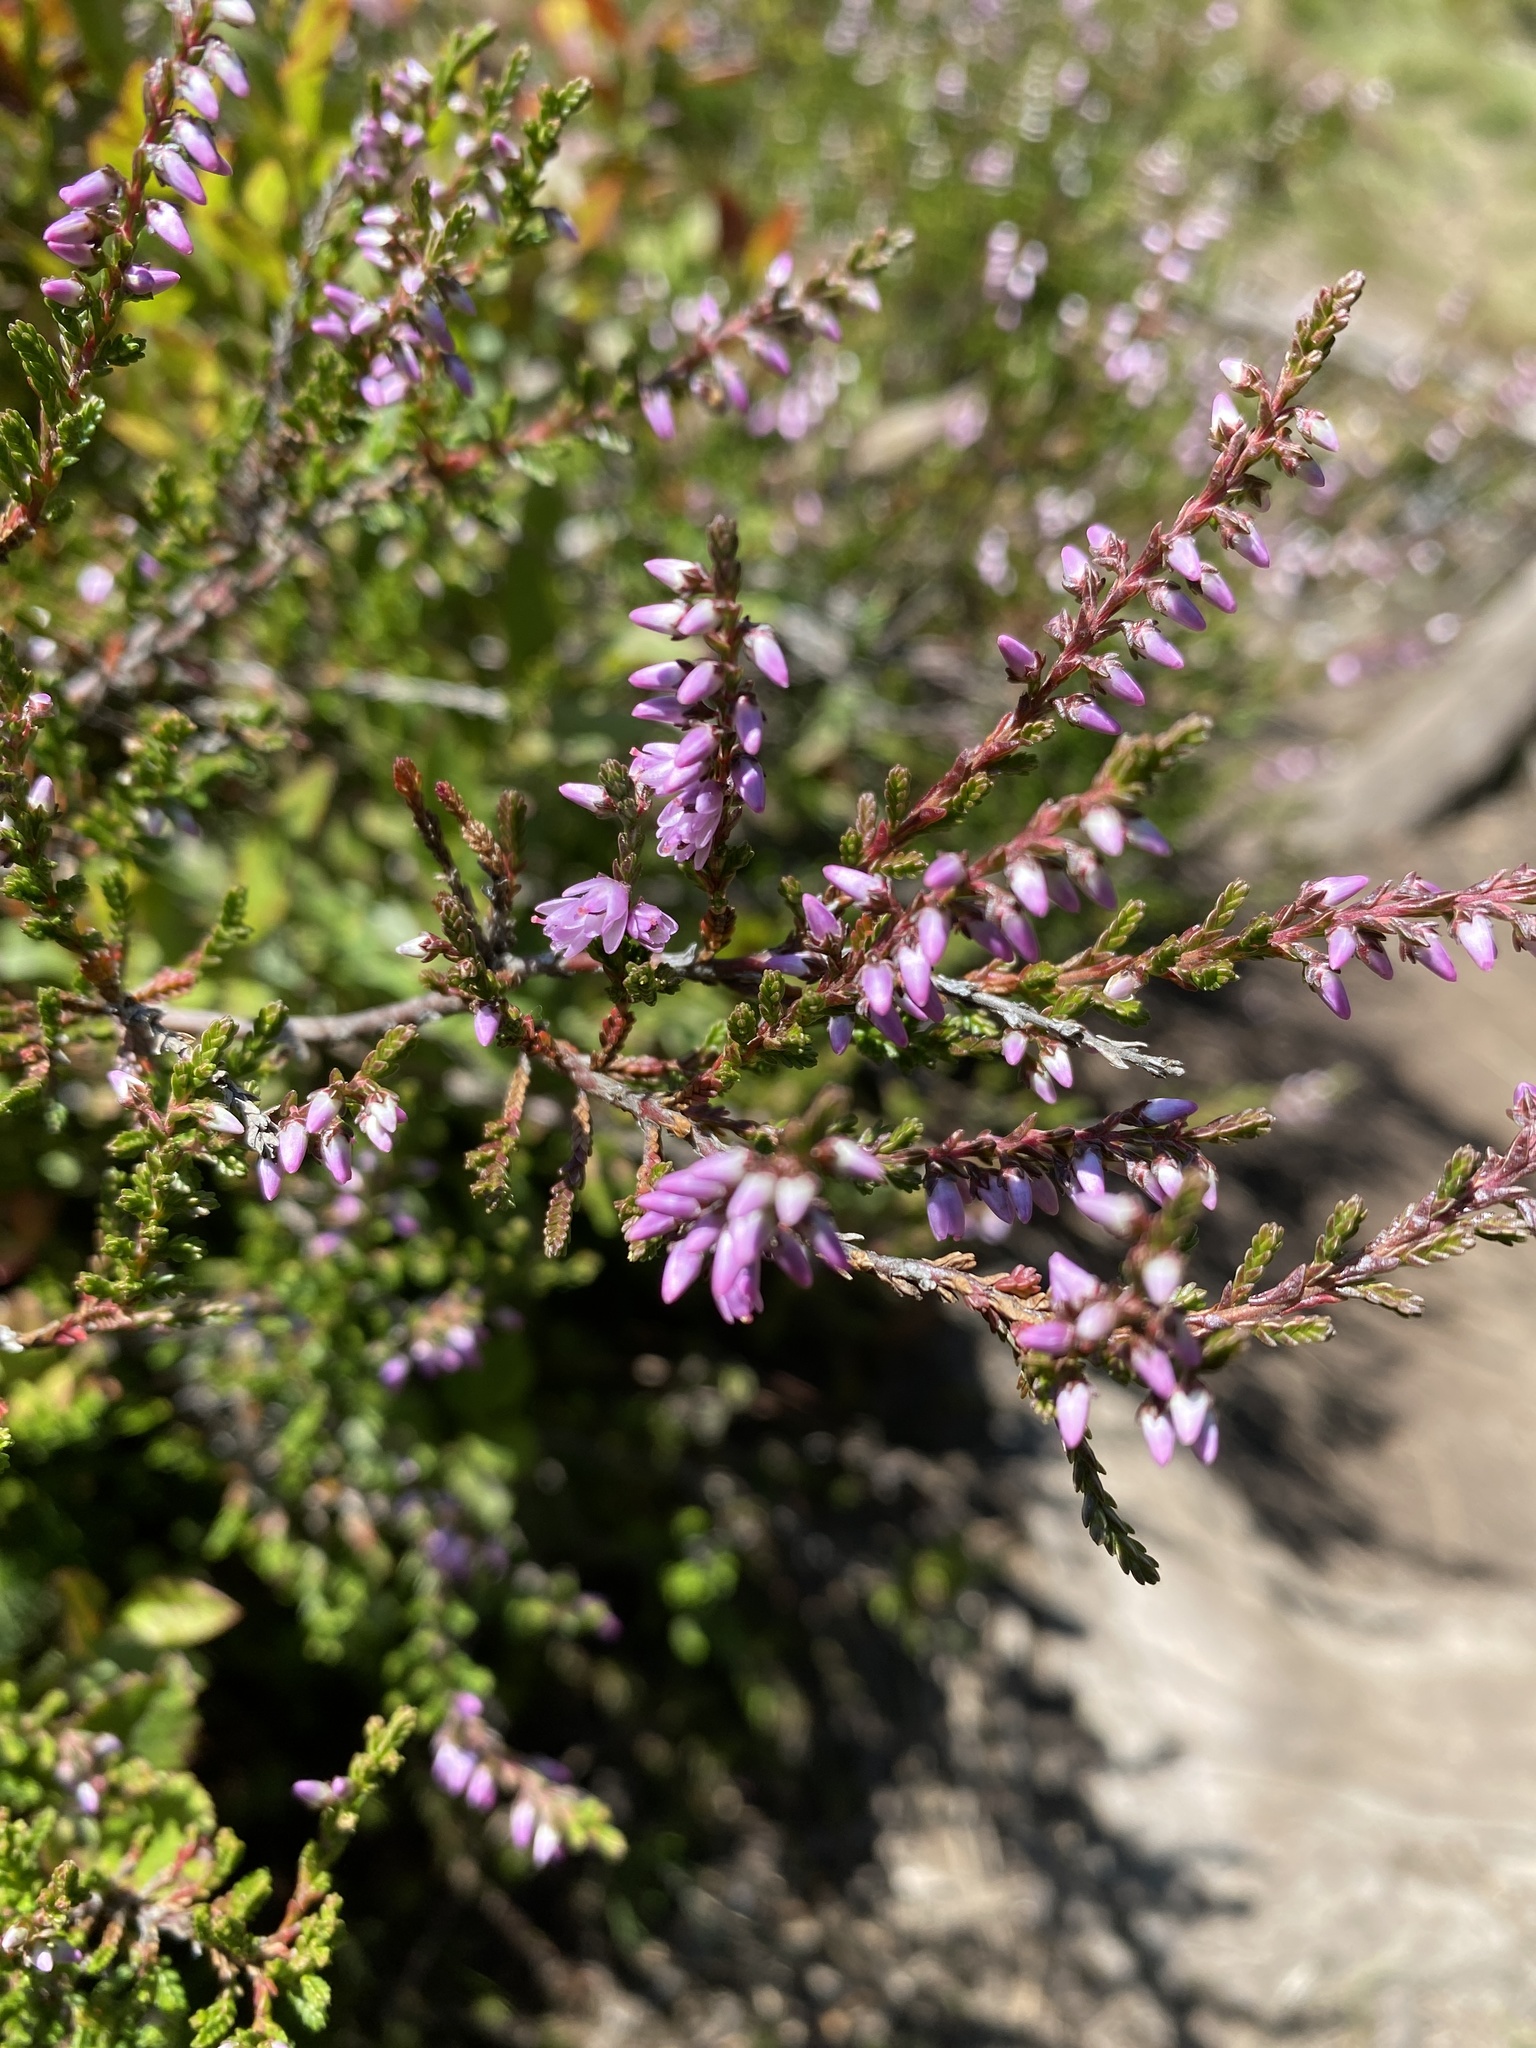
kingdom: Plantae
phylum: Tracheophyta
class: Magnoliopsida
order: Ericales
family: Ericaceae
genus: Calluna
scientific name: Calluna vulgaris
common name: Heather
